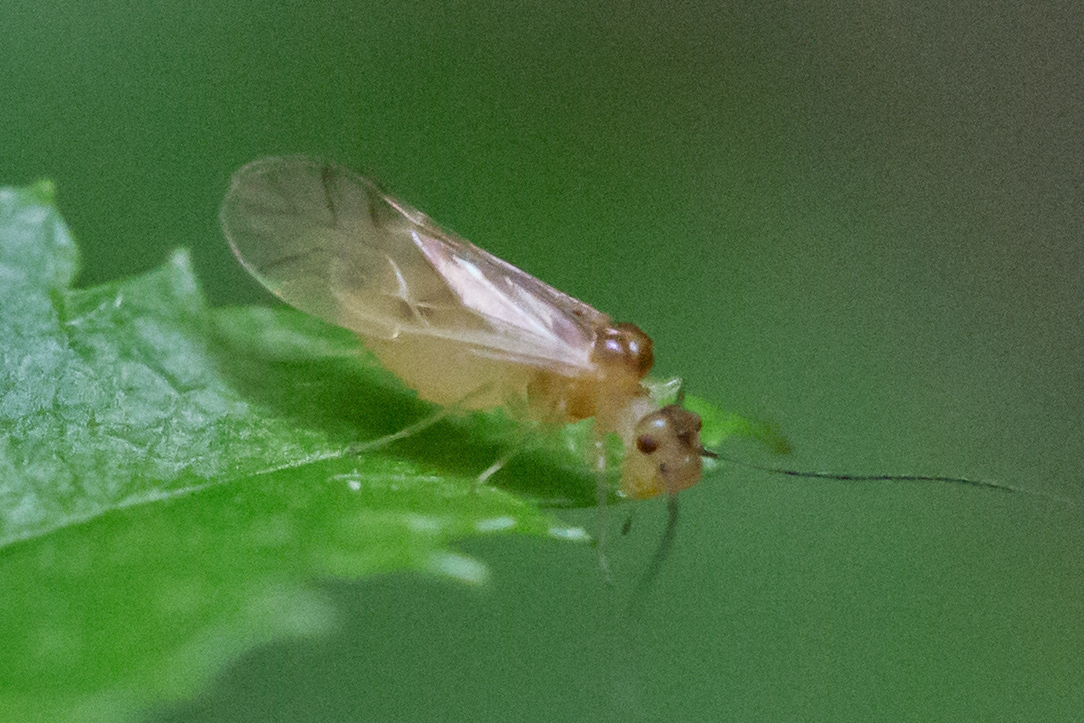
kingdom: Animalia
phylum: Arthropoda
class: Insecta
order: Psocodea
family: Caeciliusidae
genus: Valenzuela
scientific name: Valenzuela flavidus
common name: Yellow barklouse
